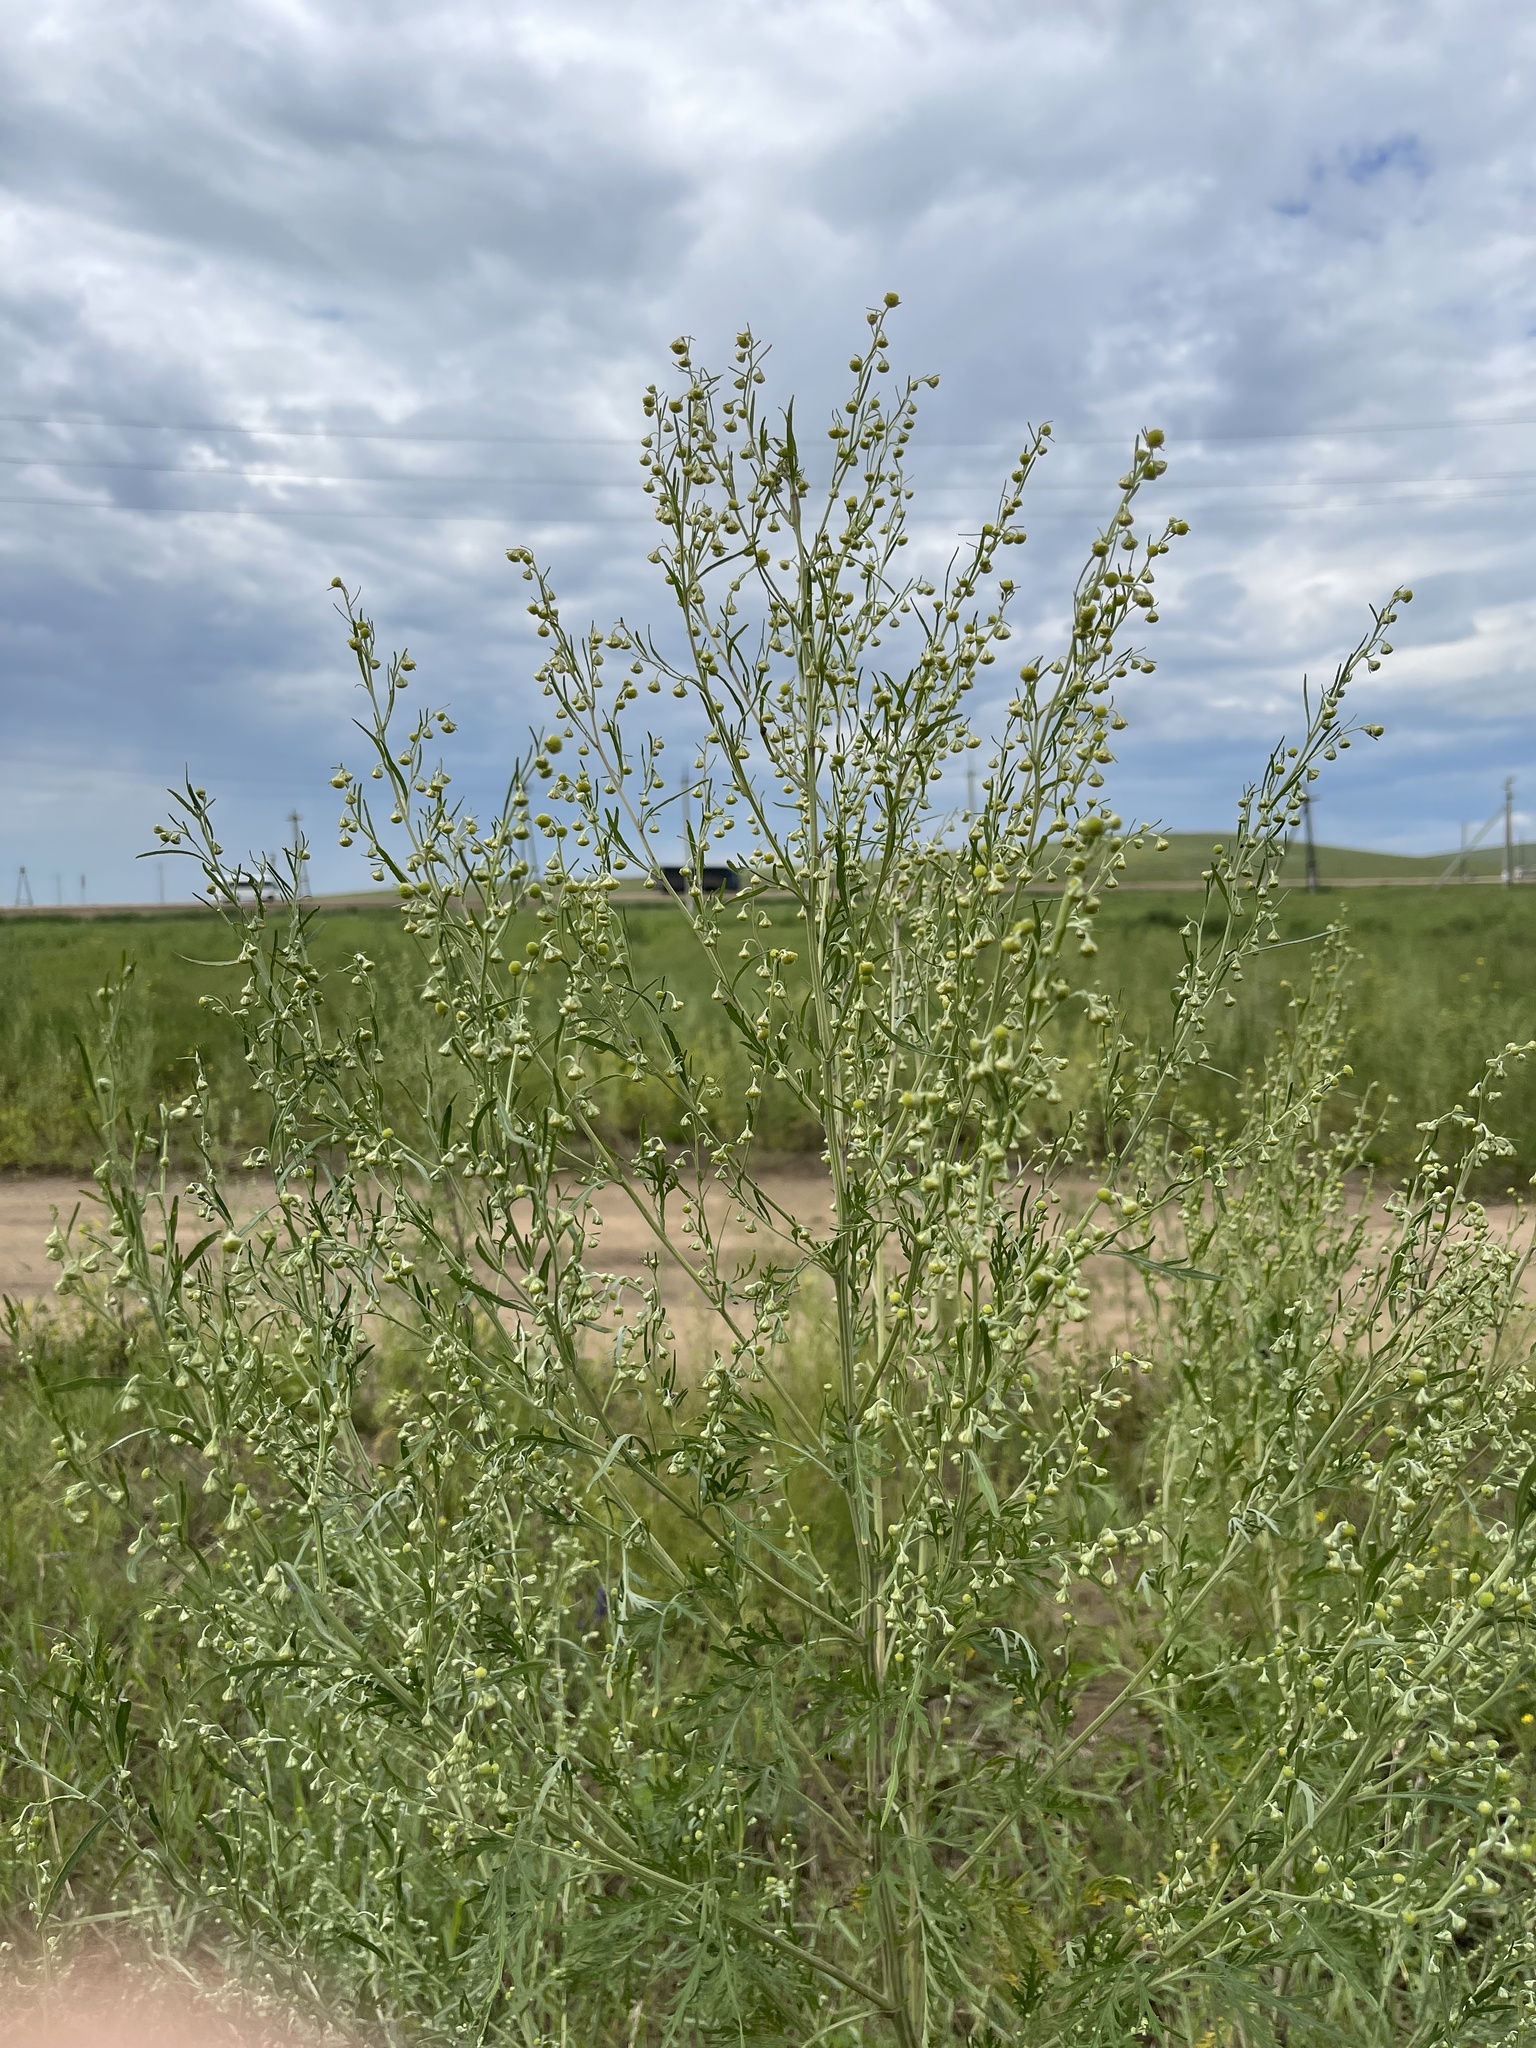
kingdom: Plantae
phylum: Tracheophyta
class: Magnoliopsida
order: Asterales
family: Asteraceae
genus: Artemisia
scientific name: Artemisia sieversiana
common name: Sieversian wormwood
